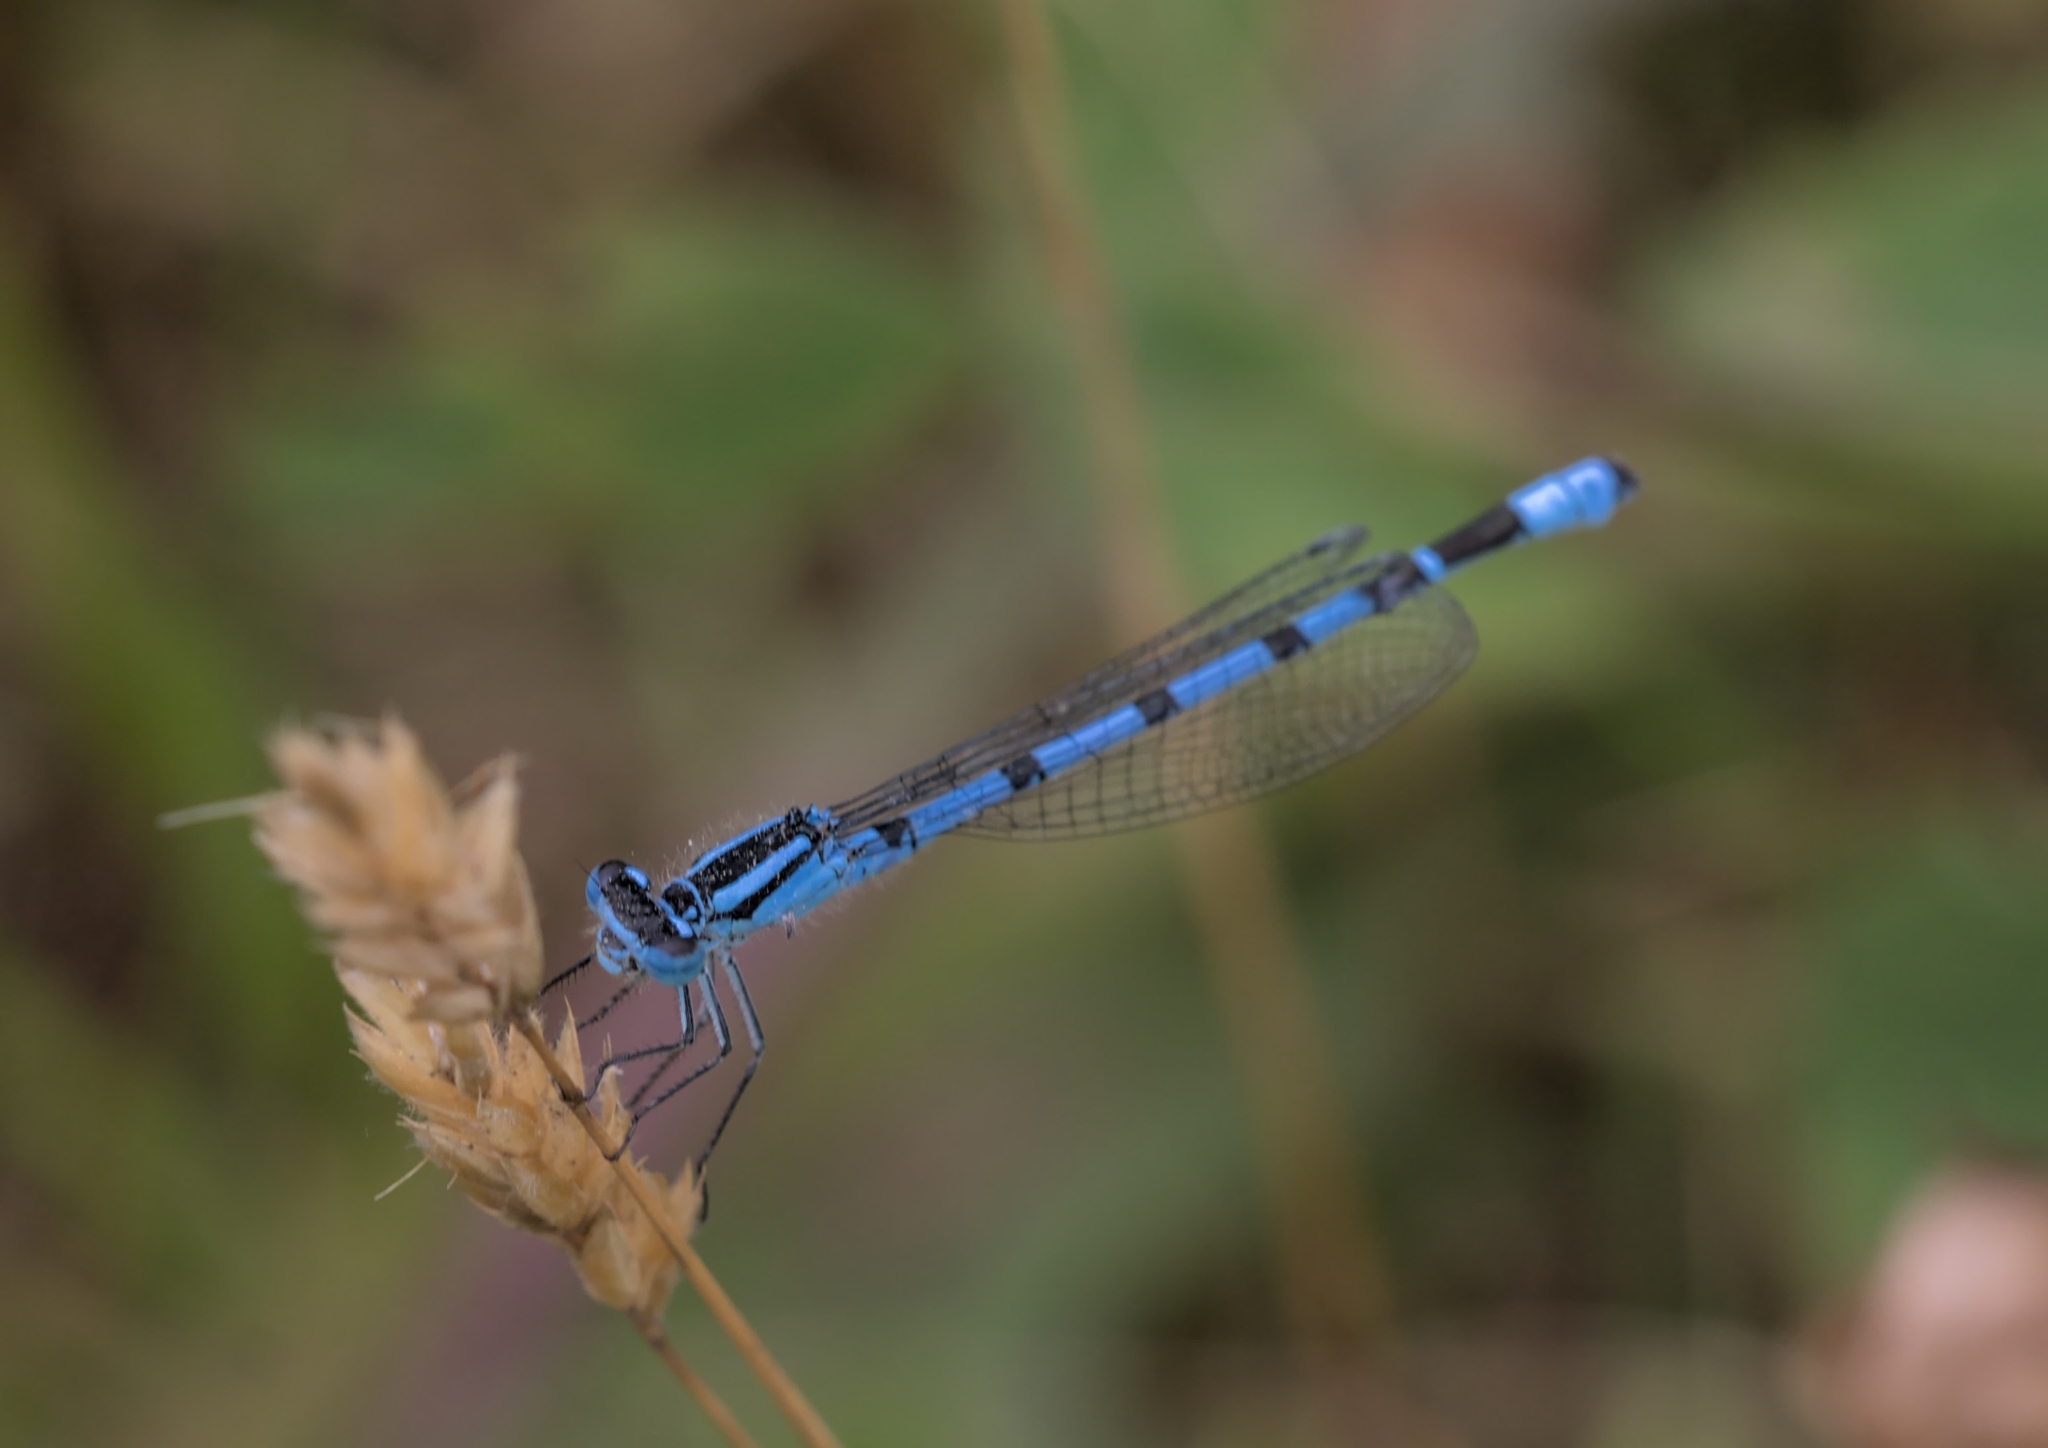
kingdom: Animalia
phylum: Arthropoda
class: Insecta
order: Odonata
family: Coenagrionidae
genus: Enallagma
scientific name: Enallagma cyathigerum
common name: Common blue damselfly
